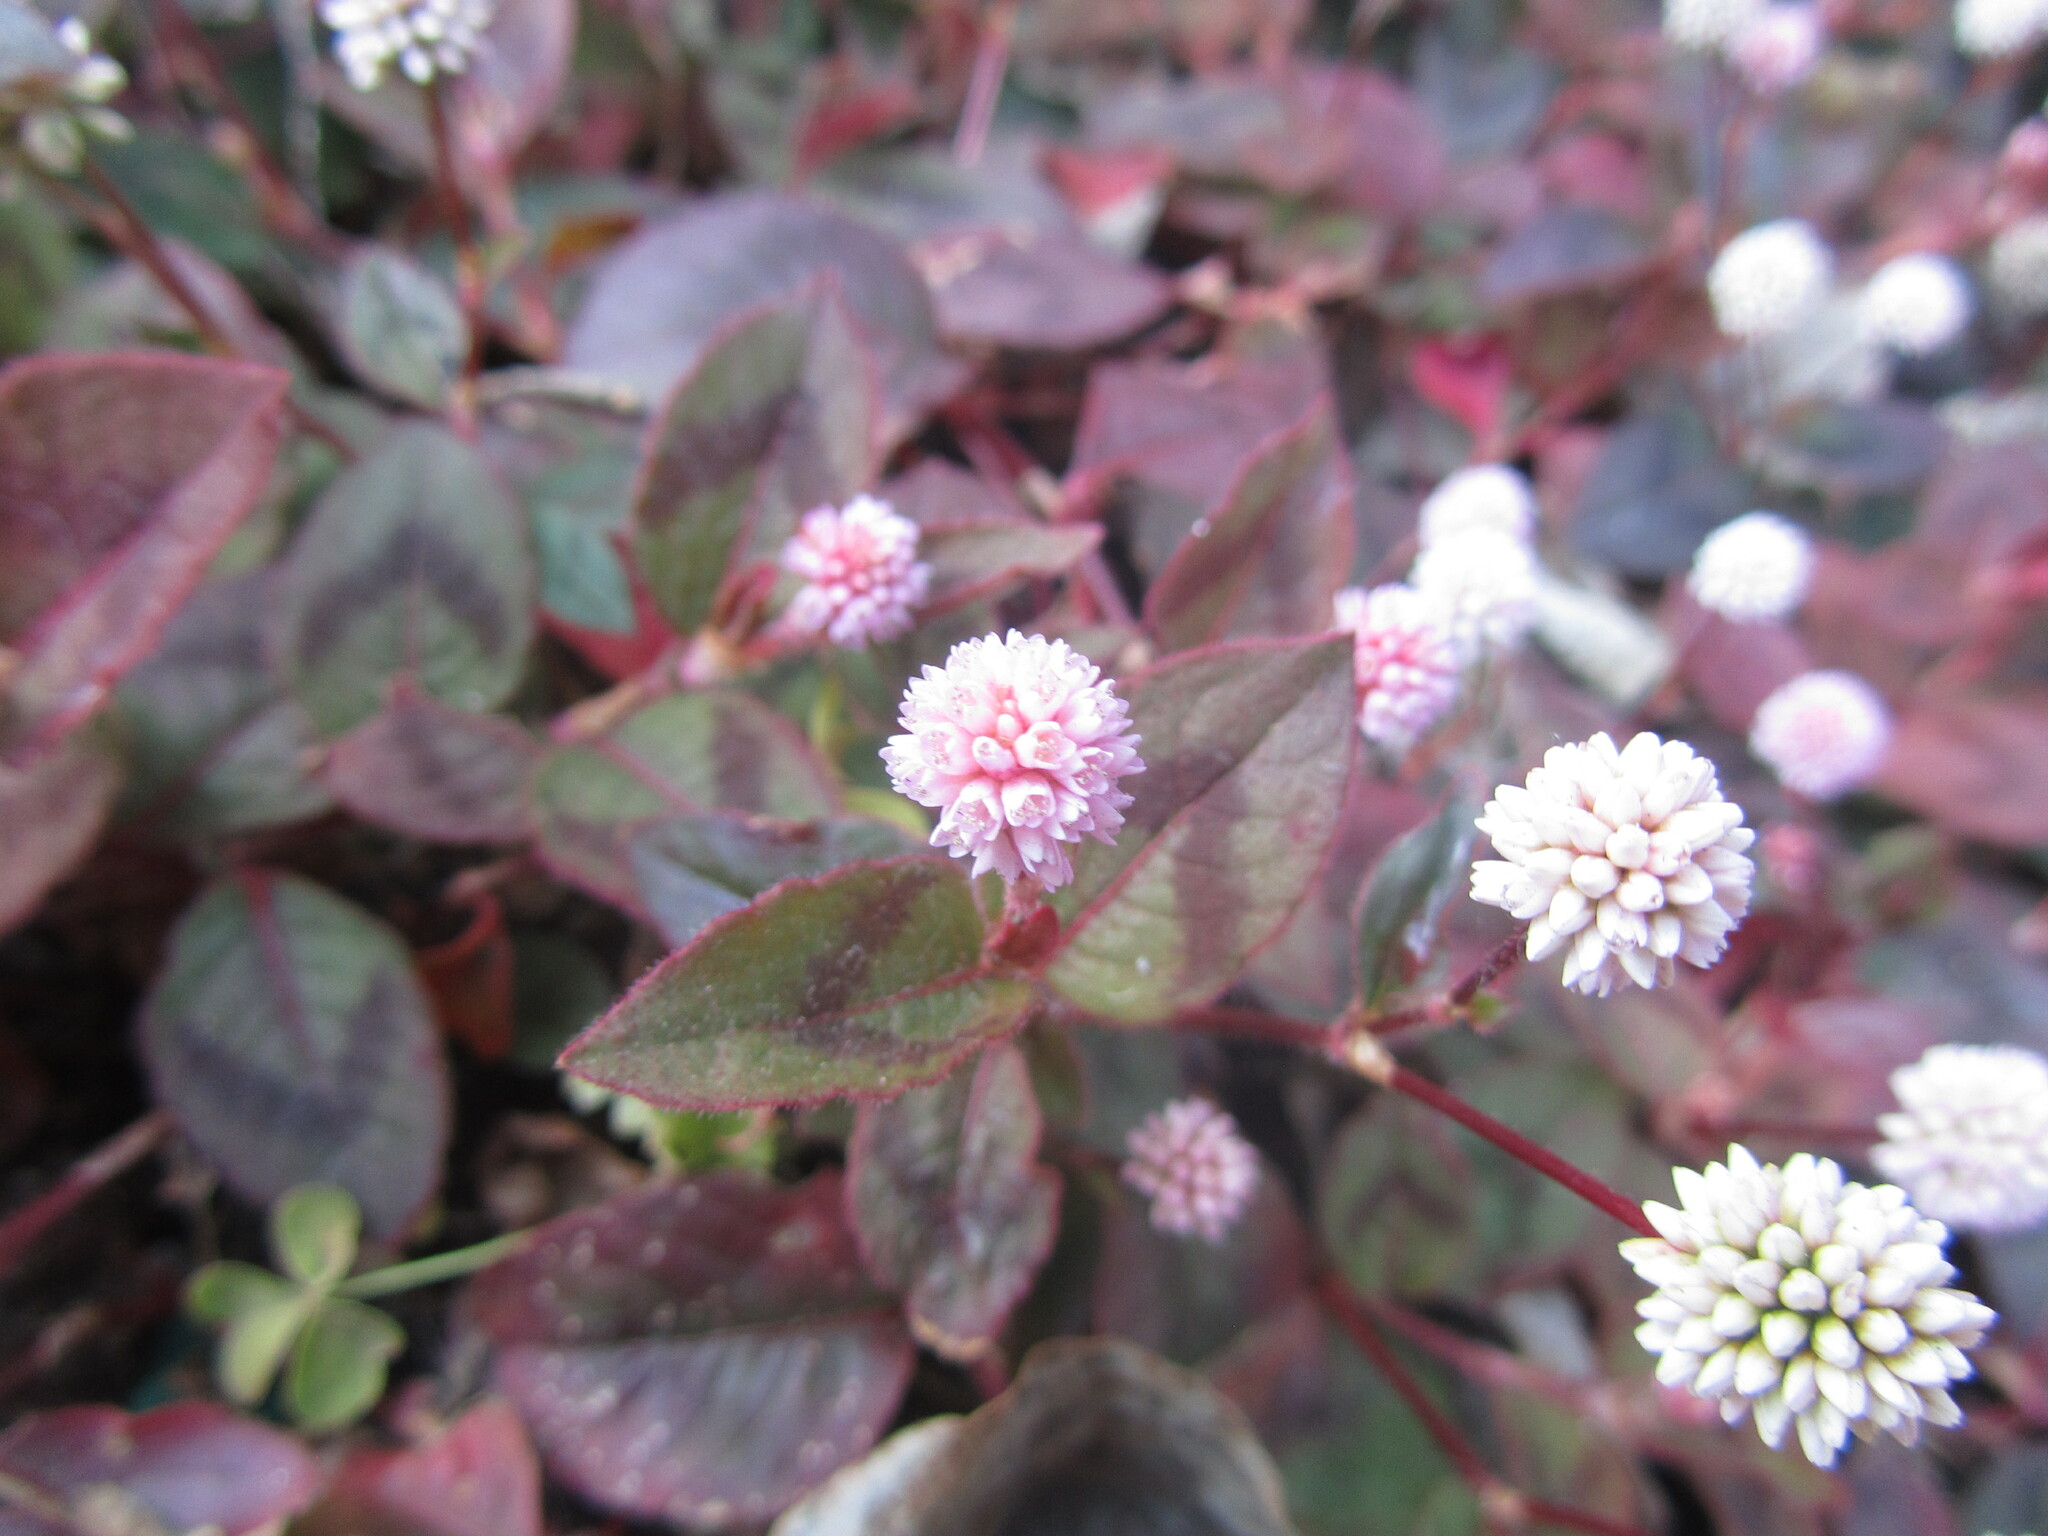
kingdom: Plantae
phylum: Tracheophyta
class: Magnoliopsida
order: Caryophyllales
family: Polygonaceae
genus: Persicaria
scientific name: Persicaria capitata
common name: Pinkhead smartweed
